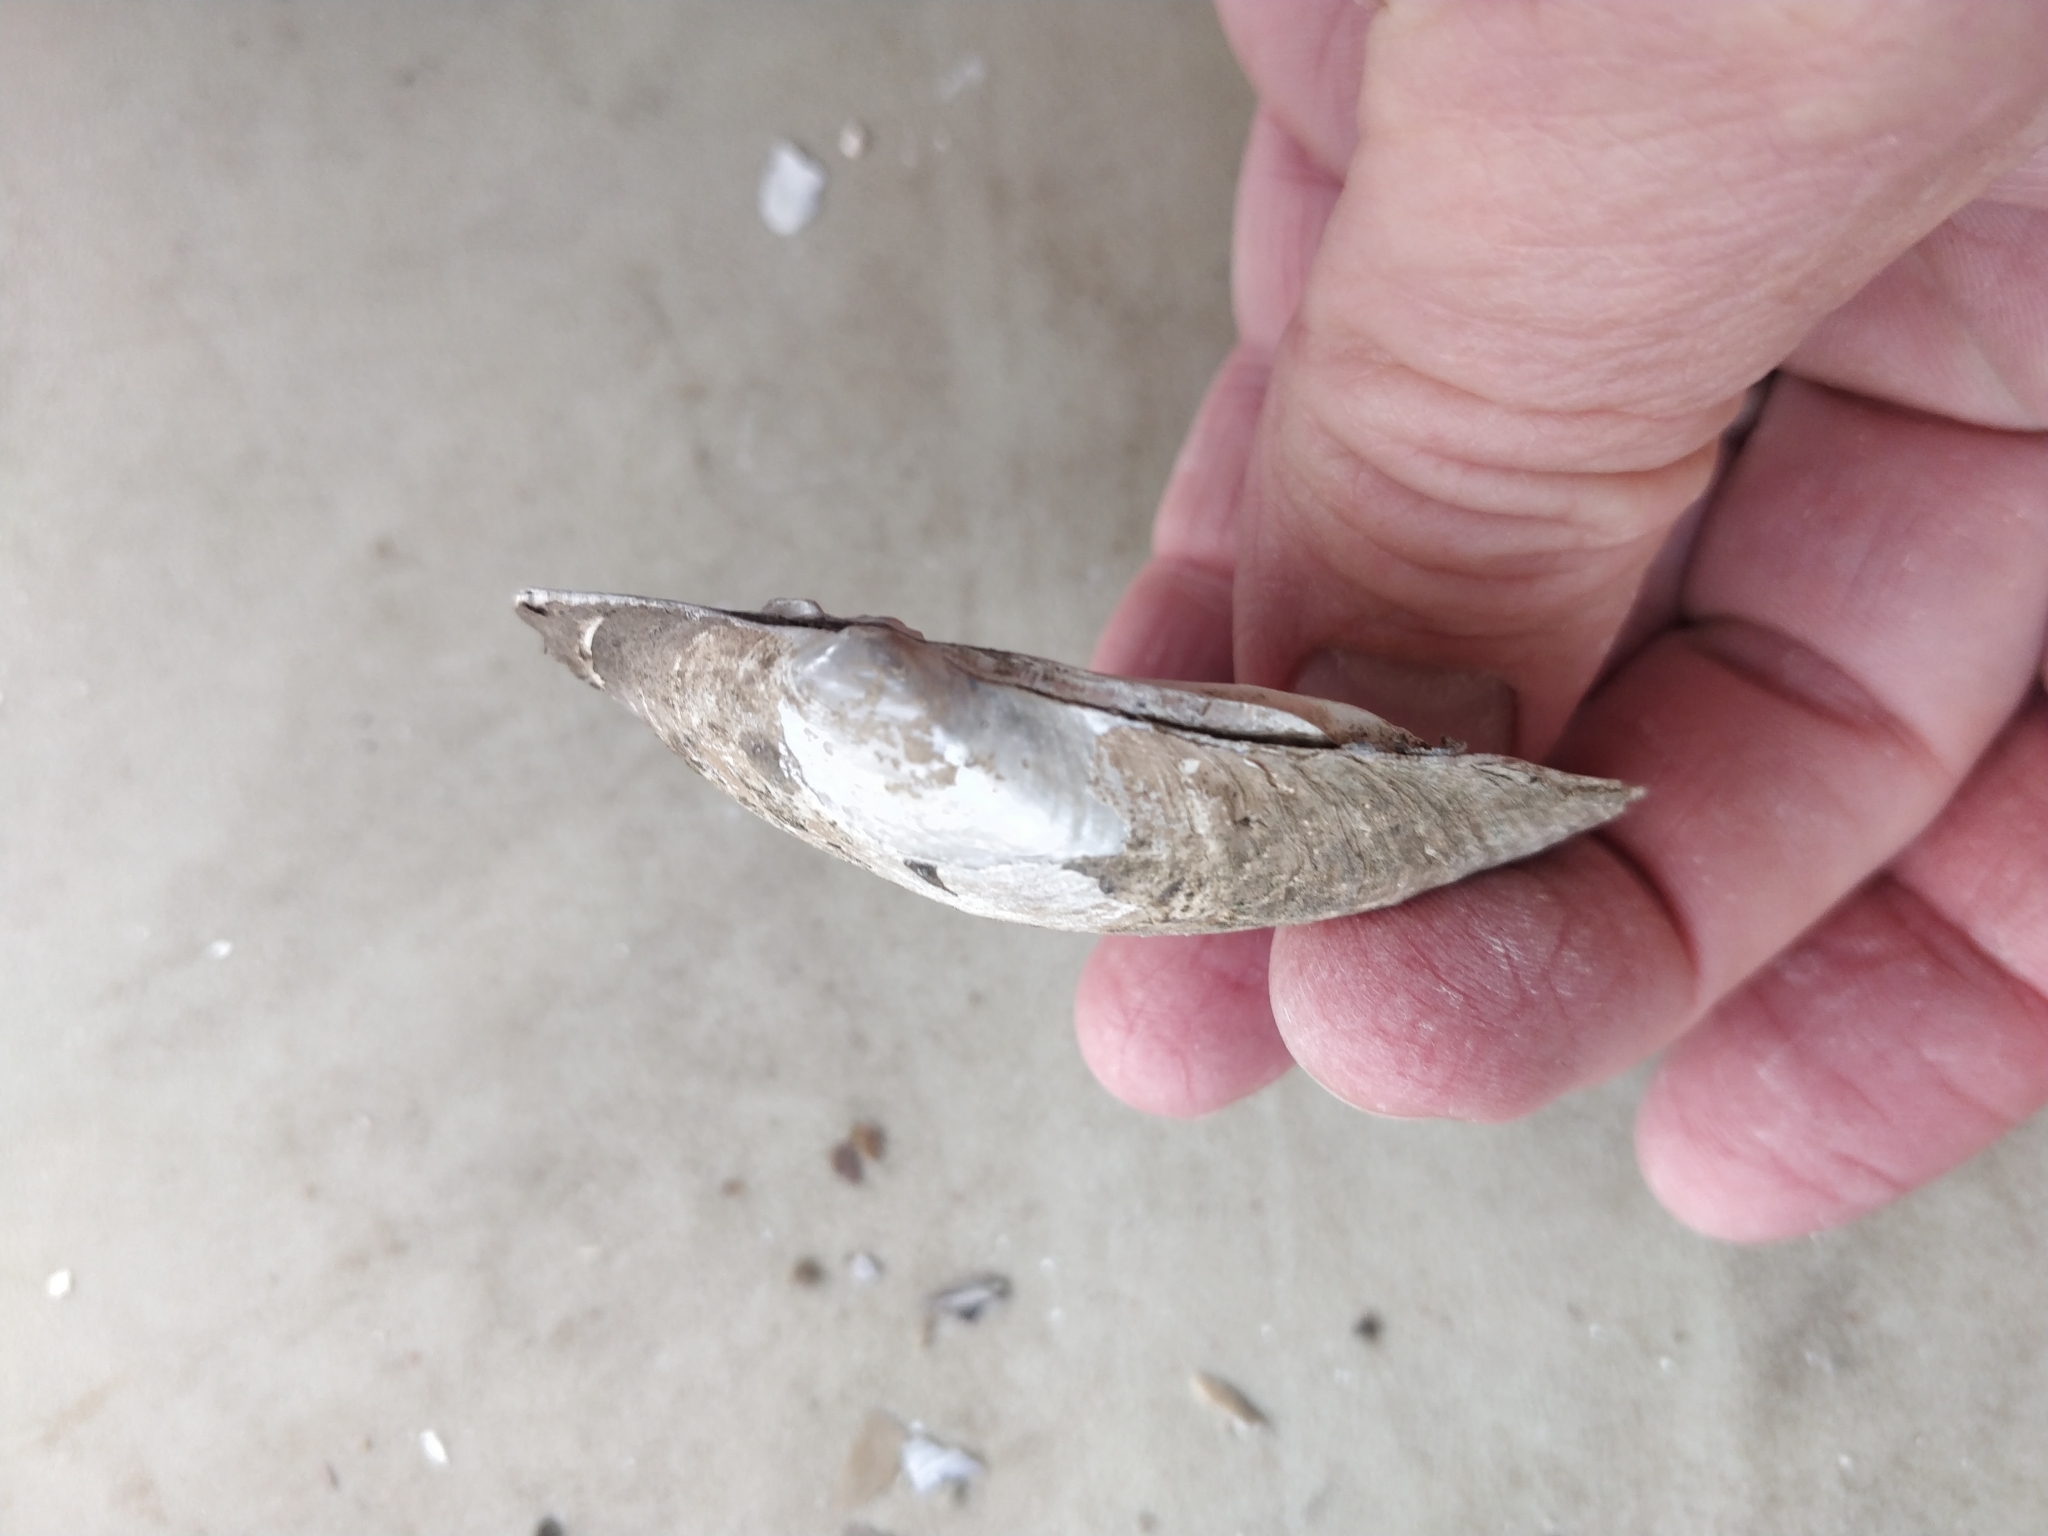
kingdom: Animalia
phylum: Mollusca
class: Bivalvia
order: Unionida
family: Unionidae
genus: Lampsilis
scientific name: Lampsilis cardium
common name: Plain pocketbook
